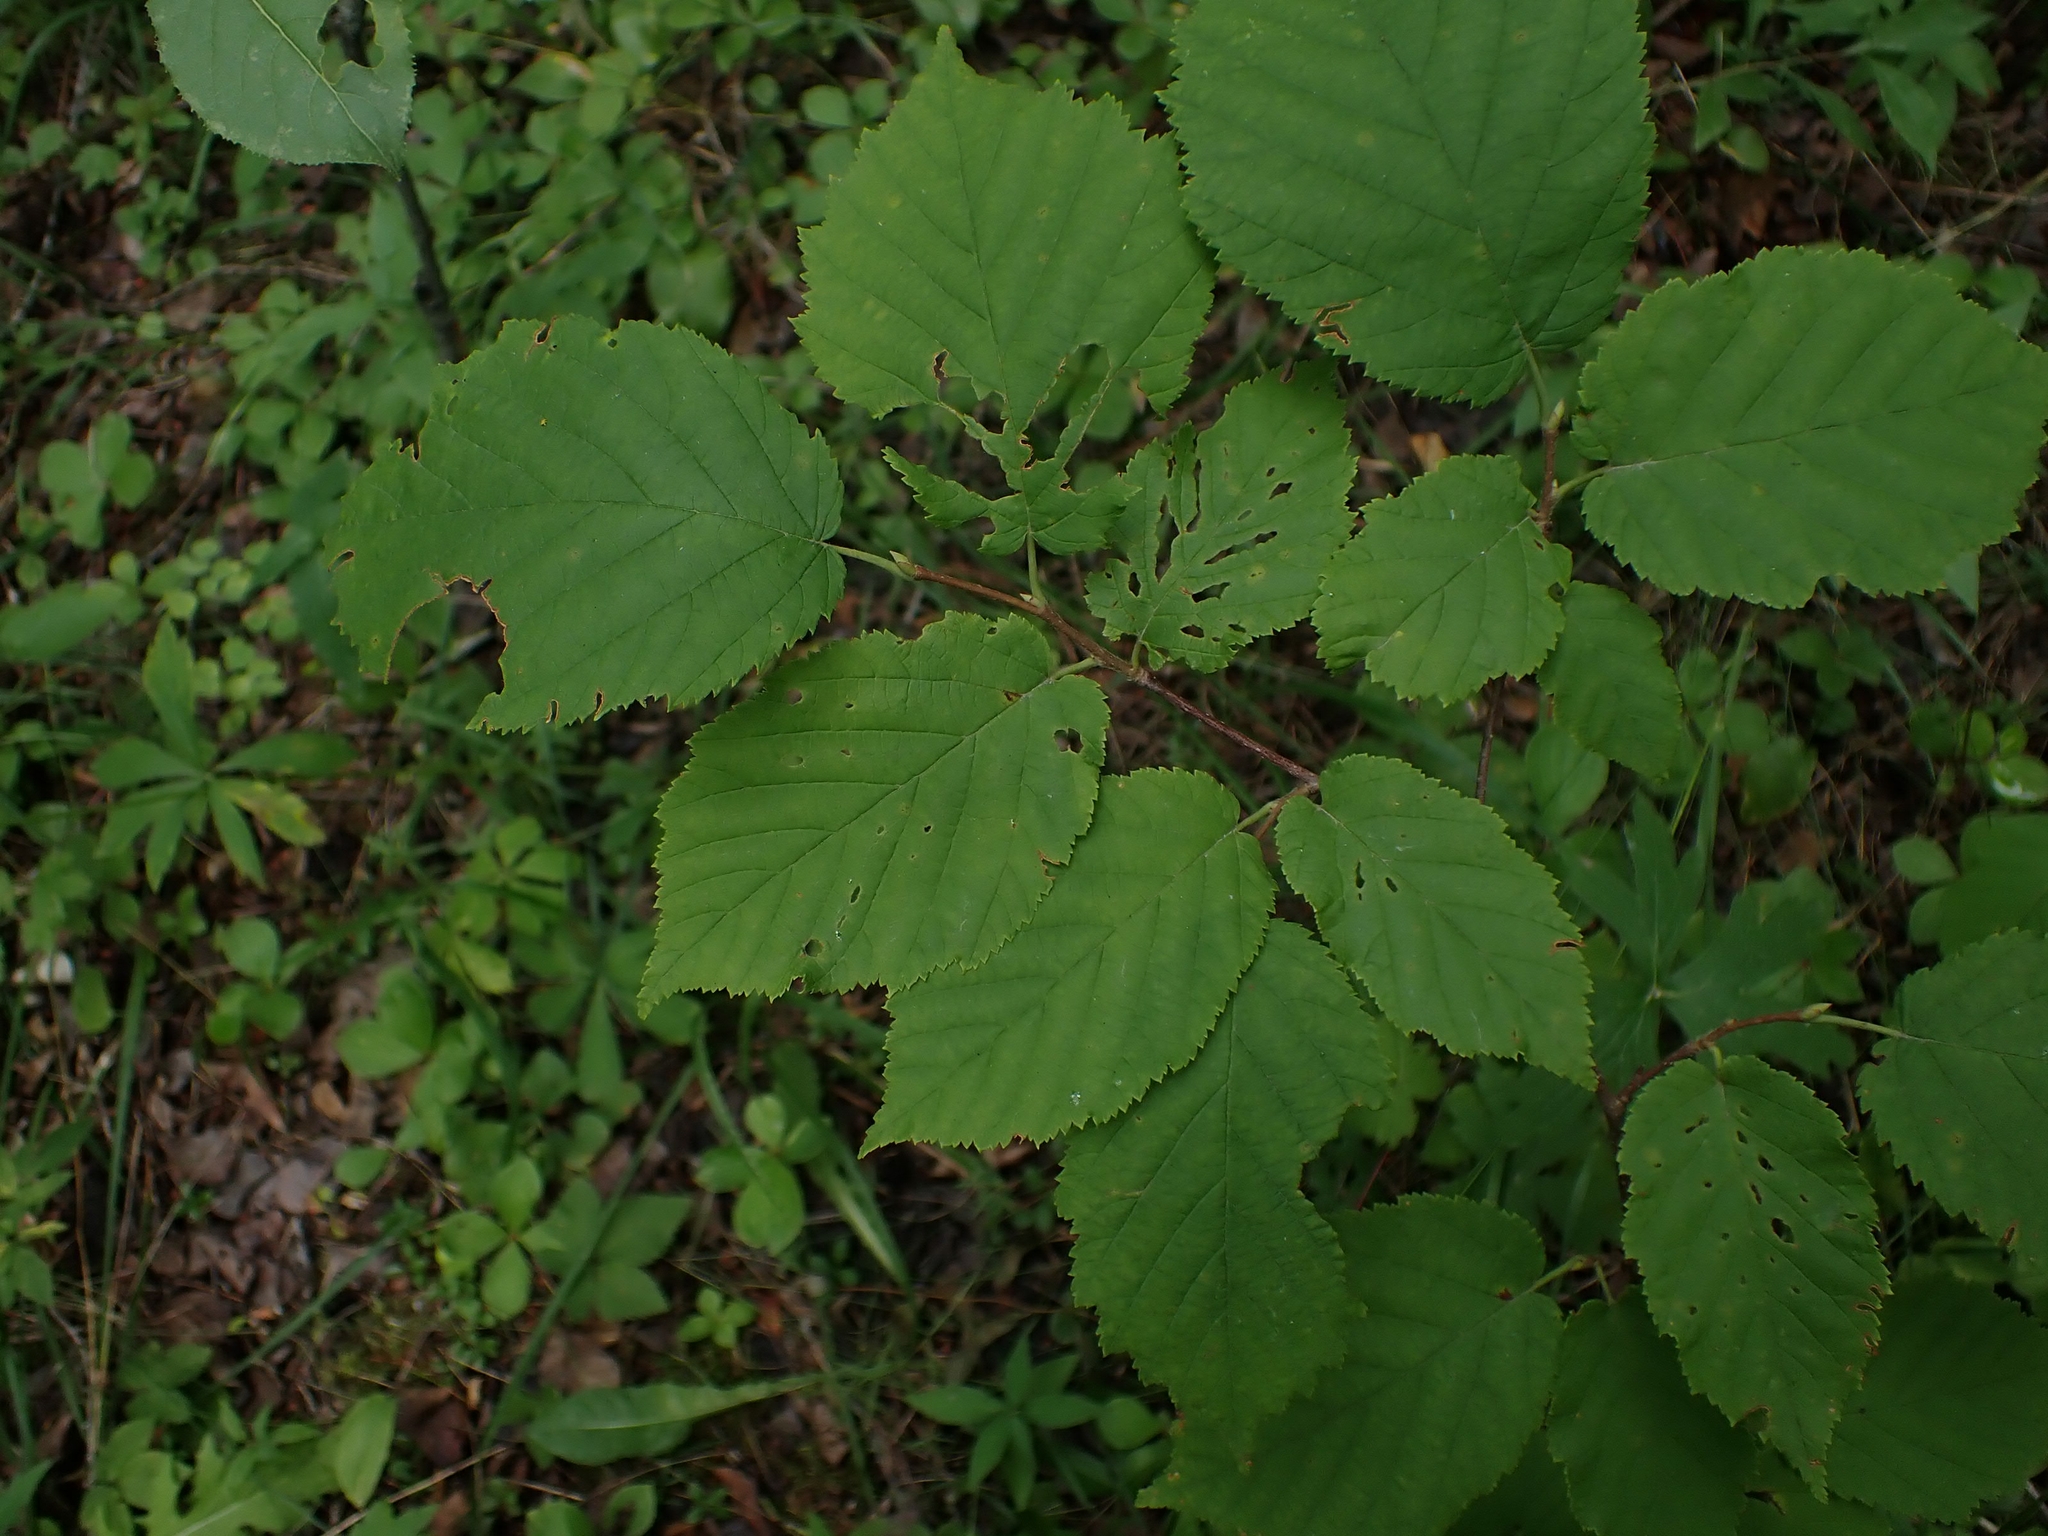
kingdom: Plantae
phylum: Tracheophyta
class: Magnoliopsida
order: Fagales
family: Betulaceae
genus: Corylus
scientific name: Corylus cornuta
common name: Beaked hazel
